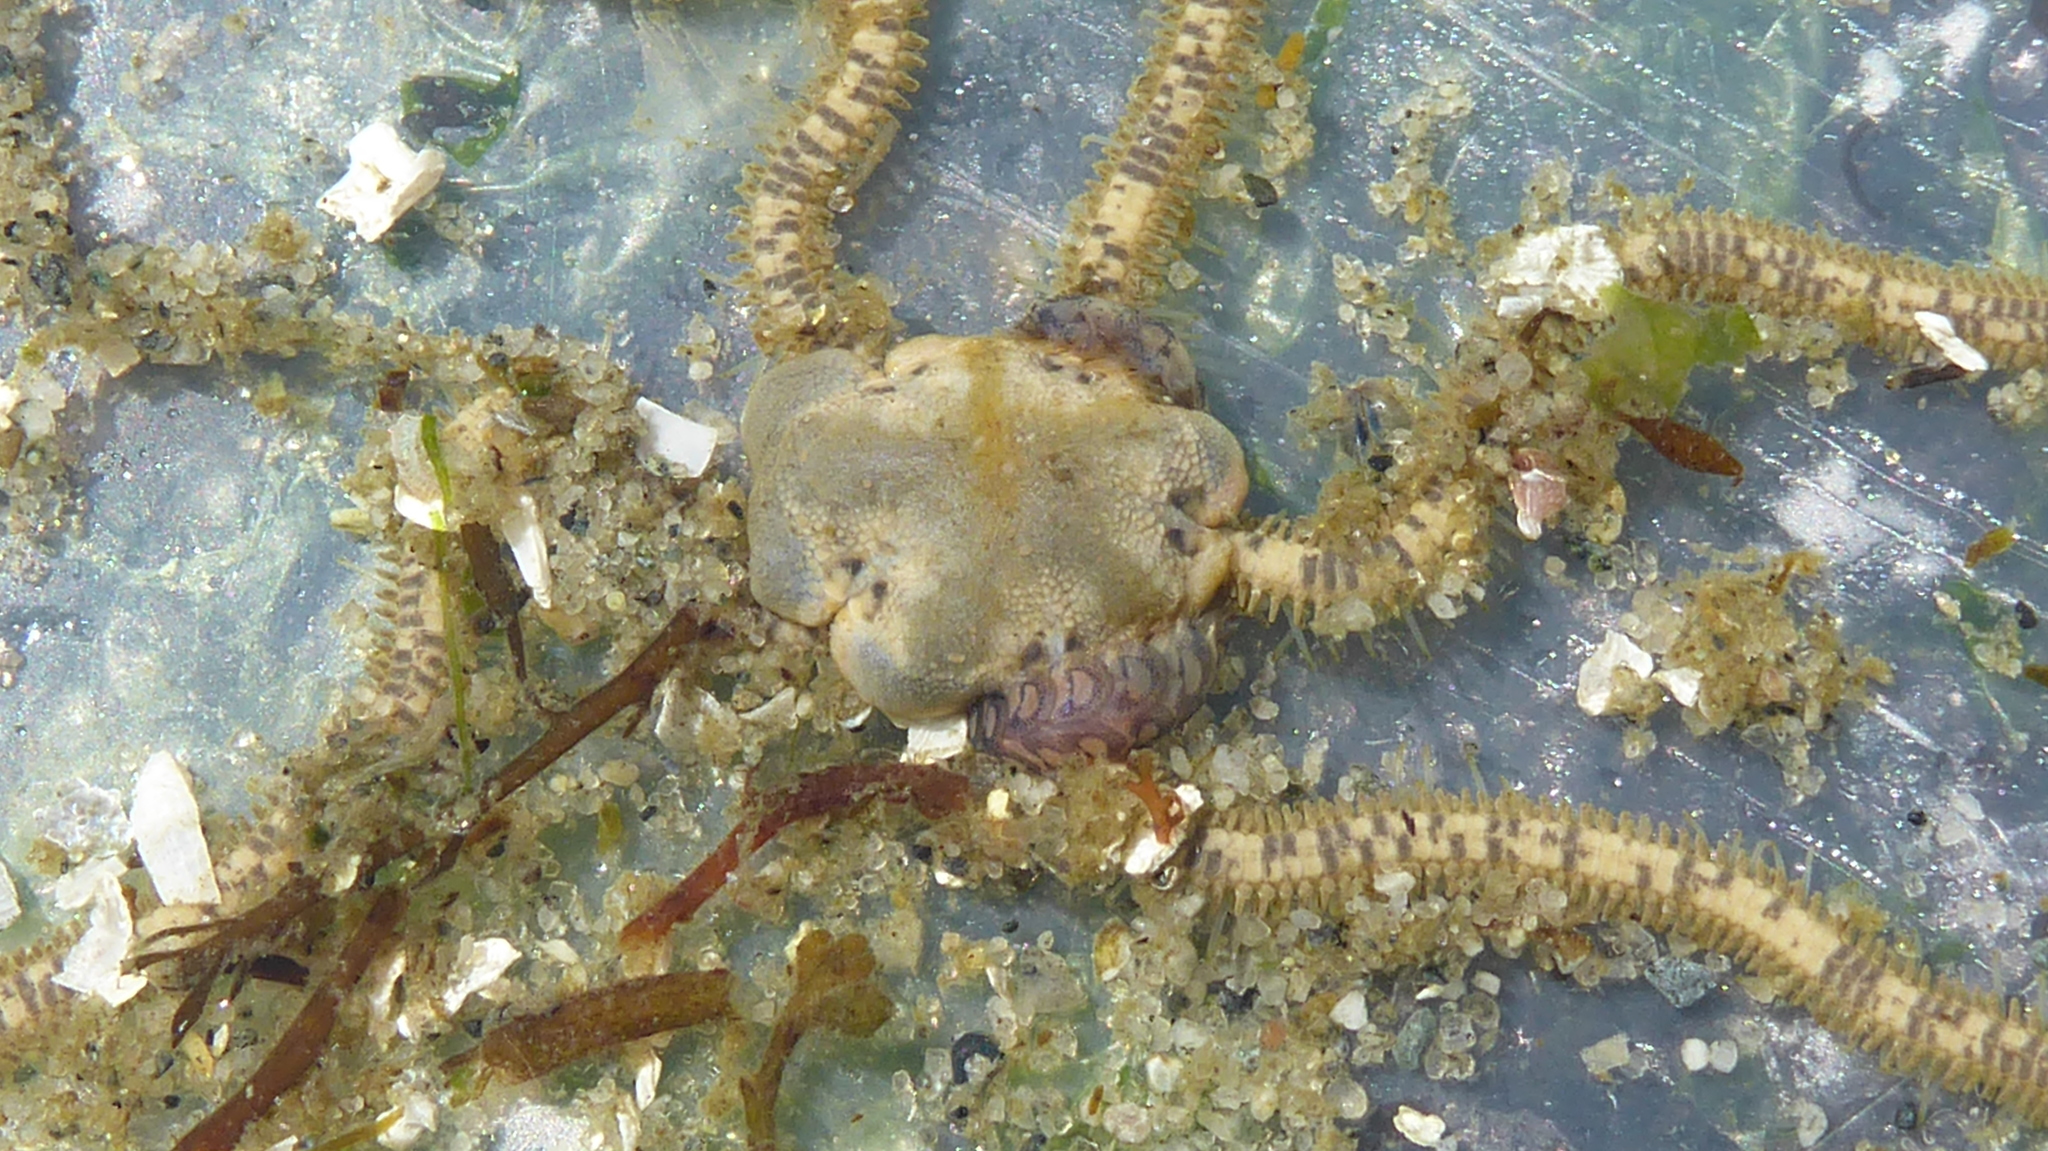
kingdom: Animalia
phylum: Echinodermata
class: Ophiuroidea
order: Amphilepidida
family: Amphiuridae
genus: Amphiodia
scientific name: Amphiodia occidentalis
